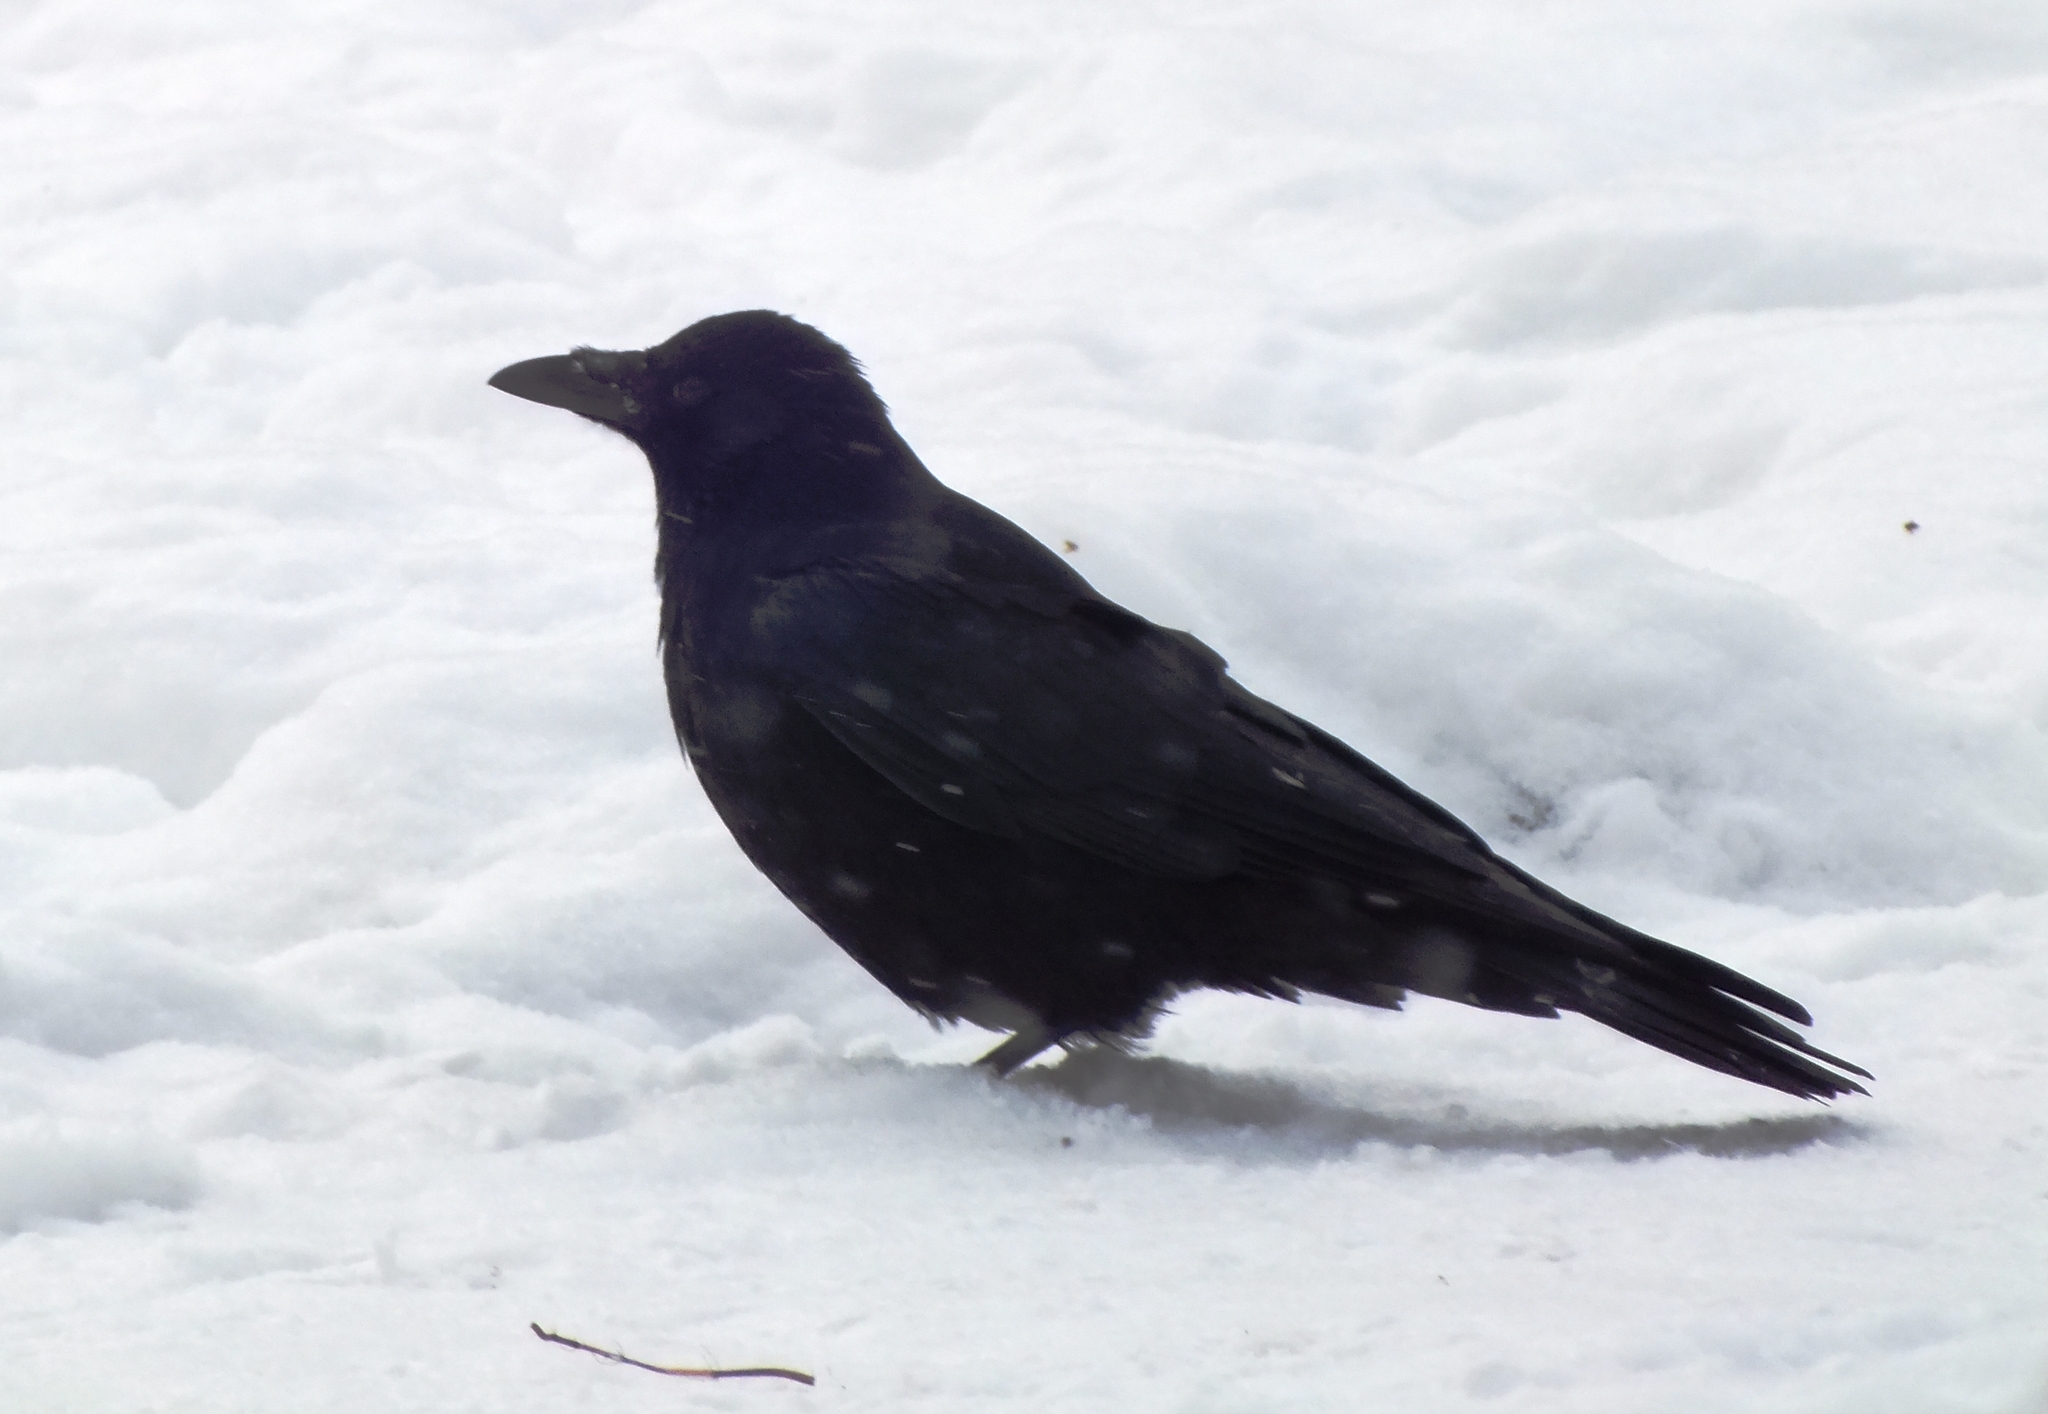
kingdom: Animalia
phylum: Chordata
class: Aves
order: Passeriformes
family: Corvidae
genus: Corvus
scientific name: Corvus corone
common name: Carrion crow
